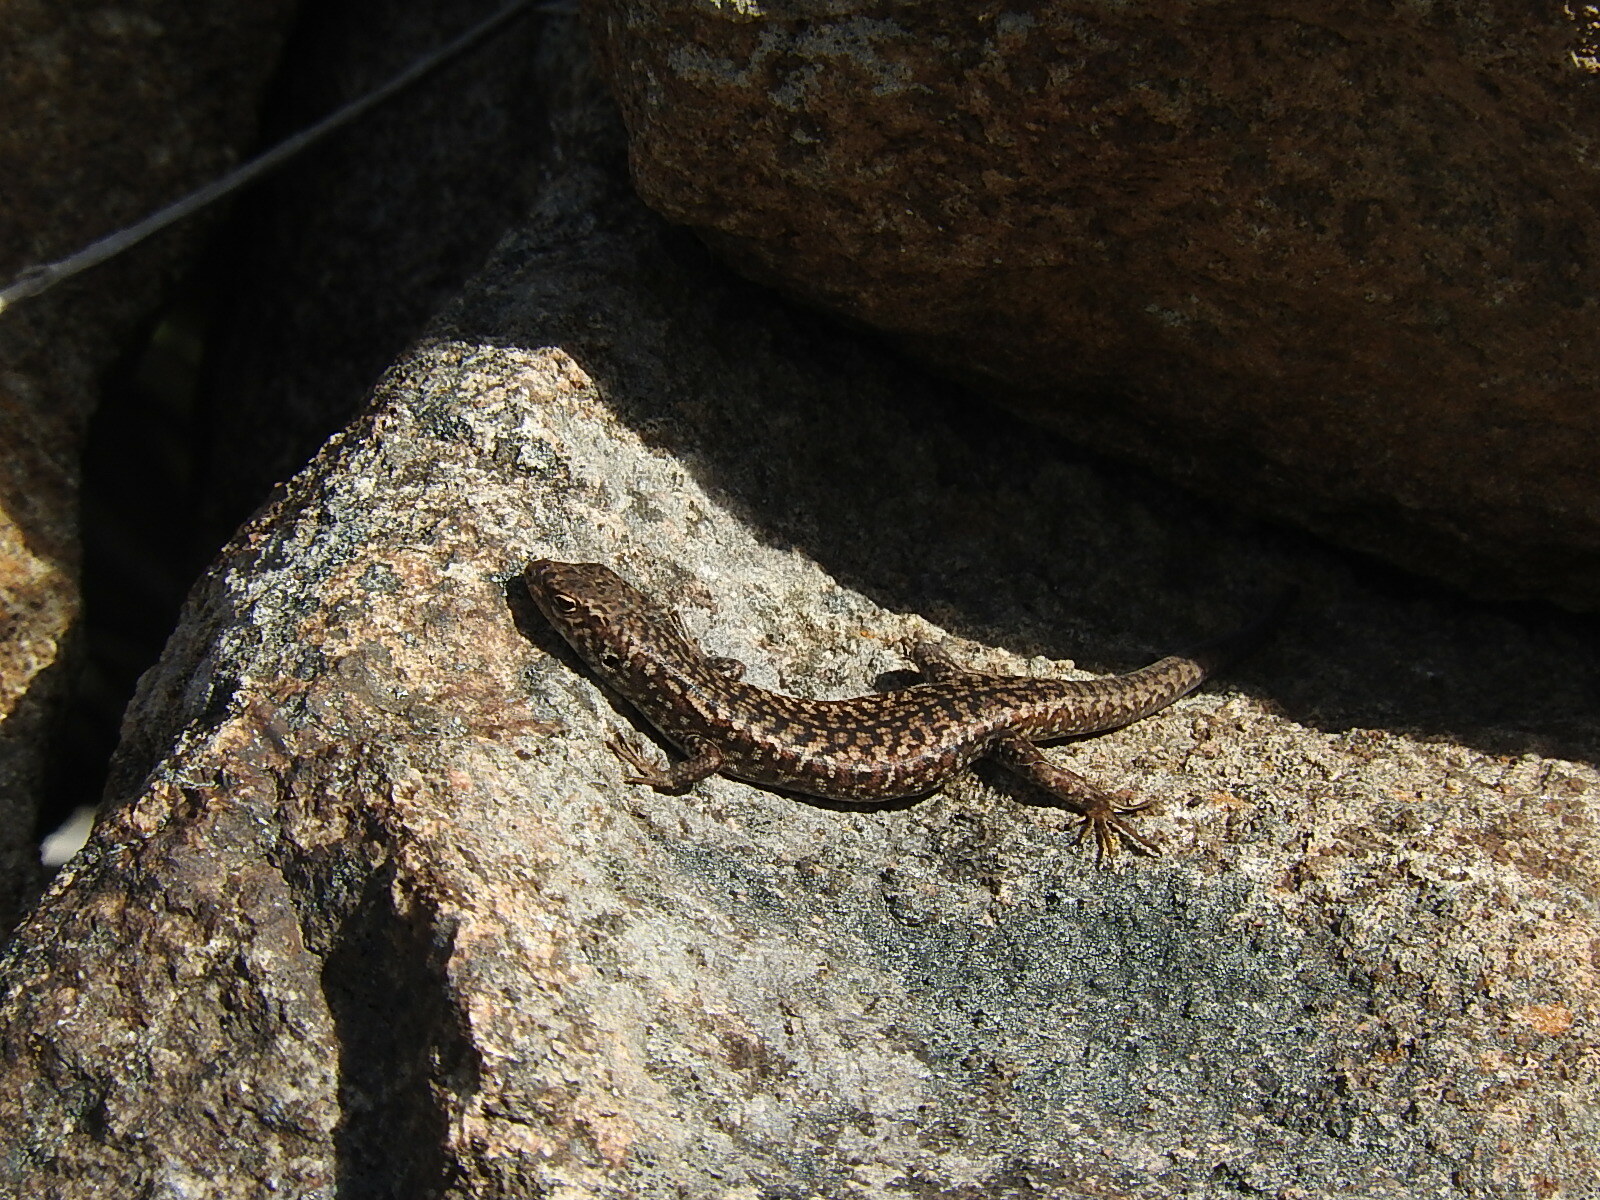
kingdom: Animalia
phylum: Chordata
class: Squamata
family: Scincidae
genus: Carinascincus
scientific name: Carinascincus ocellatus
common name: Ocellated cool-skink
